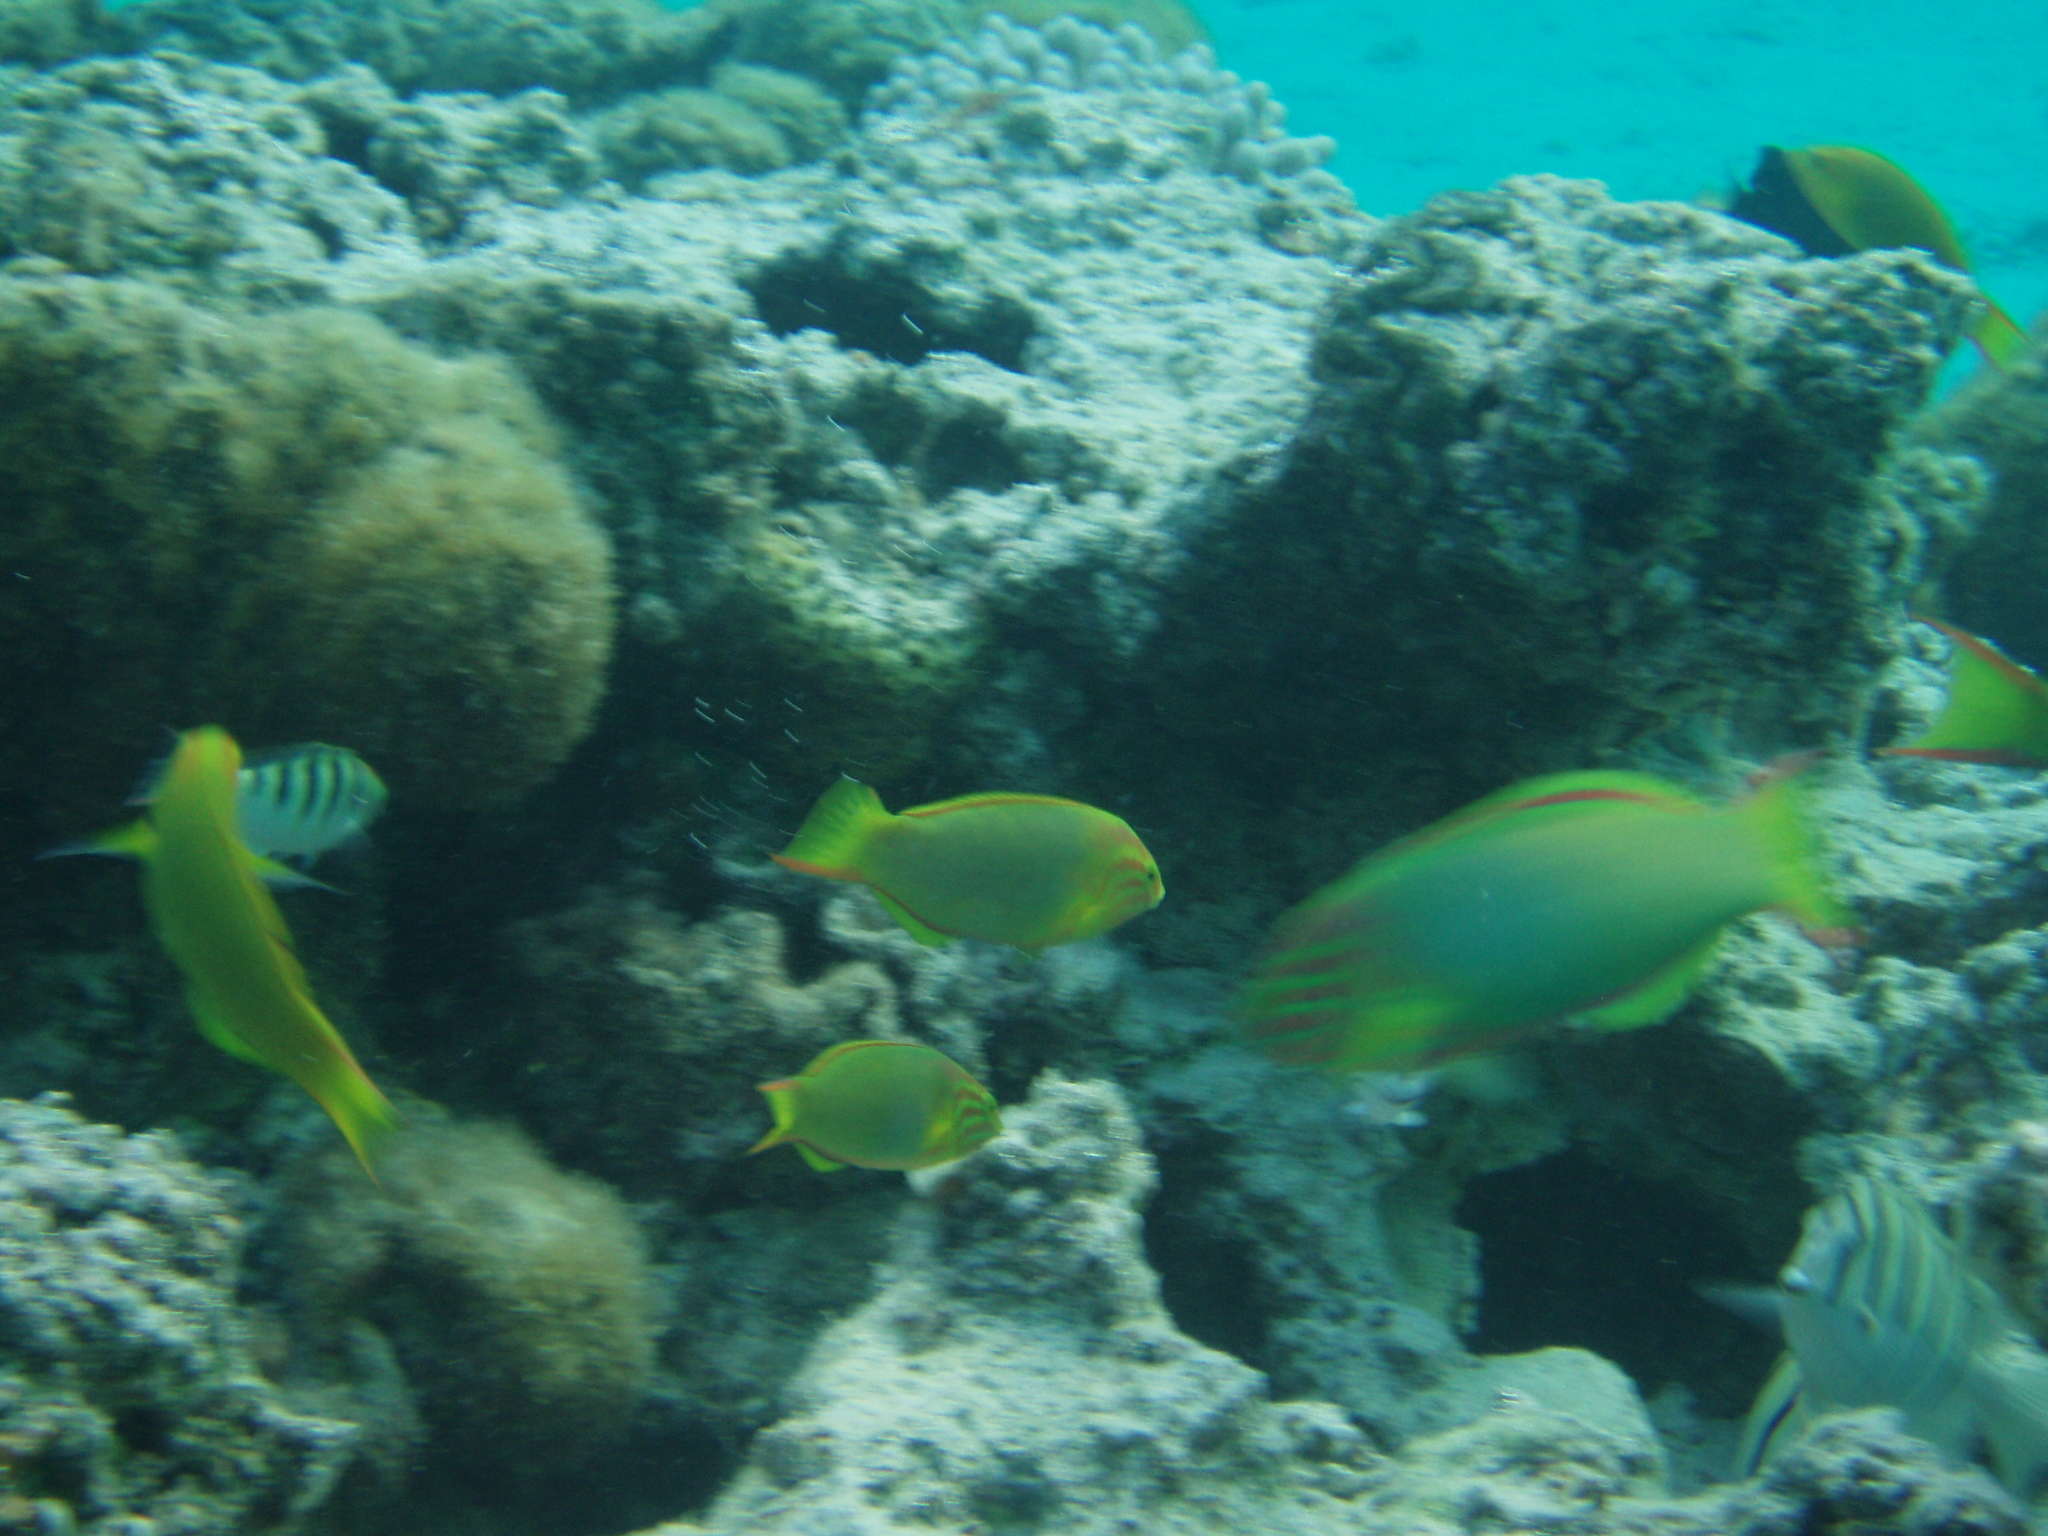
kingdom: Animalia
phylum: Chordata
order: Perciformes
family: Labridae
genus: Thalassoma
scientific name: Thalassoma lutescens
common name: Green moon wrasse
